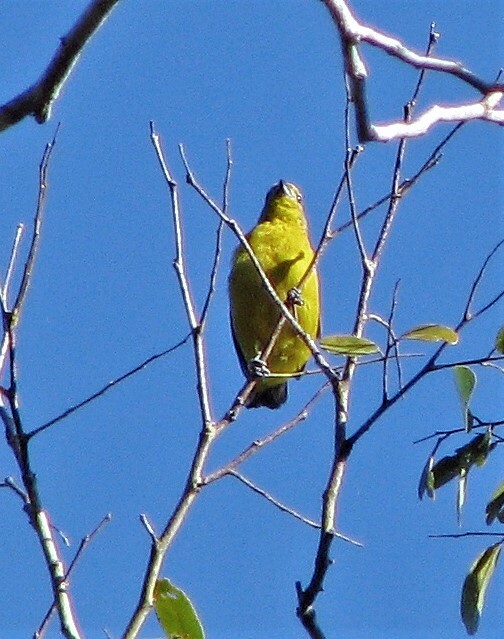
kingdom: Animalia
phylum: Chordata
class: Aves
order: Passeriformes
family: Fringillidae
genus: Euphonia
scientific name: Euphonia violacea
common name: Violaceous euphonia
